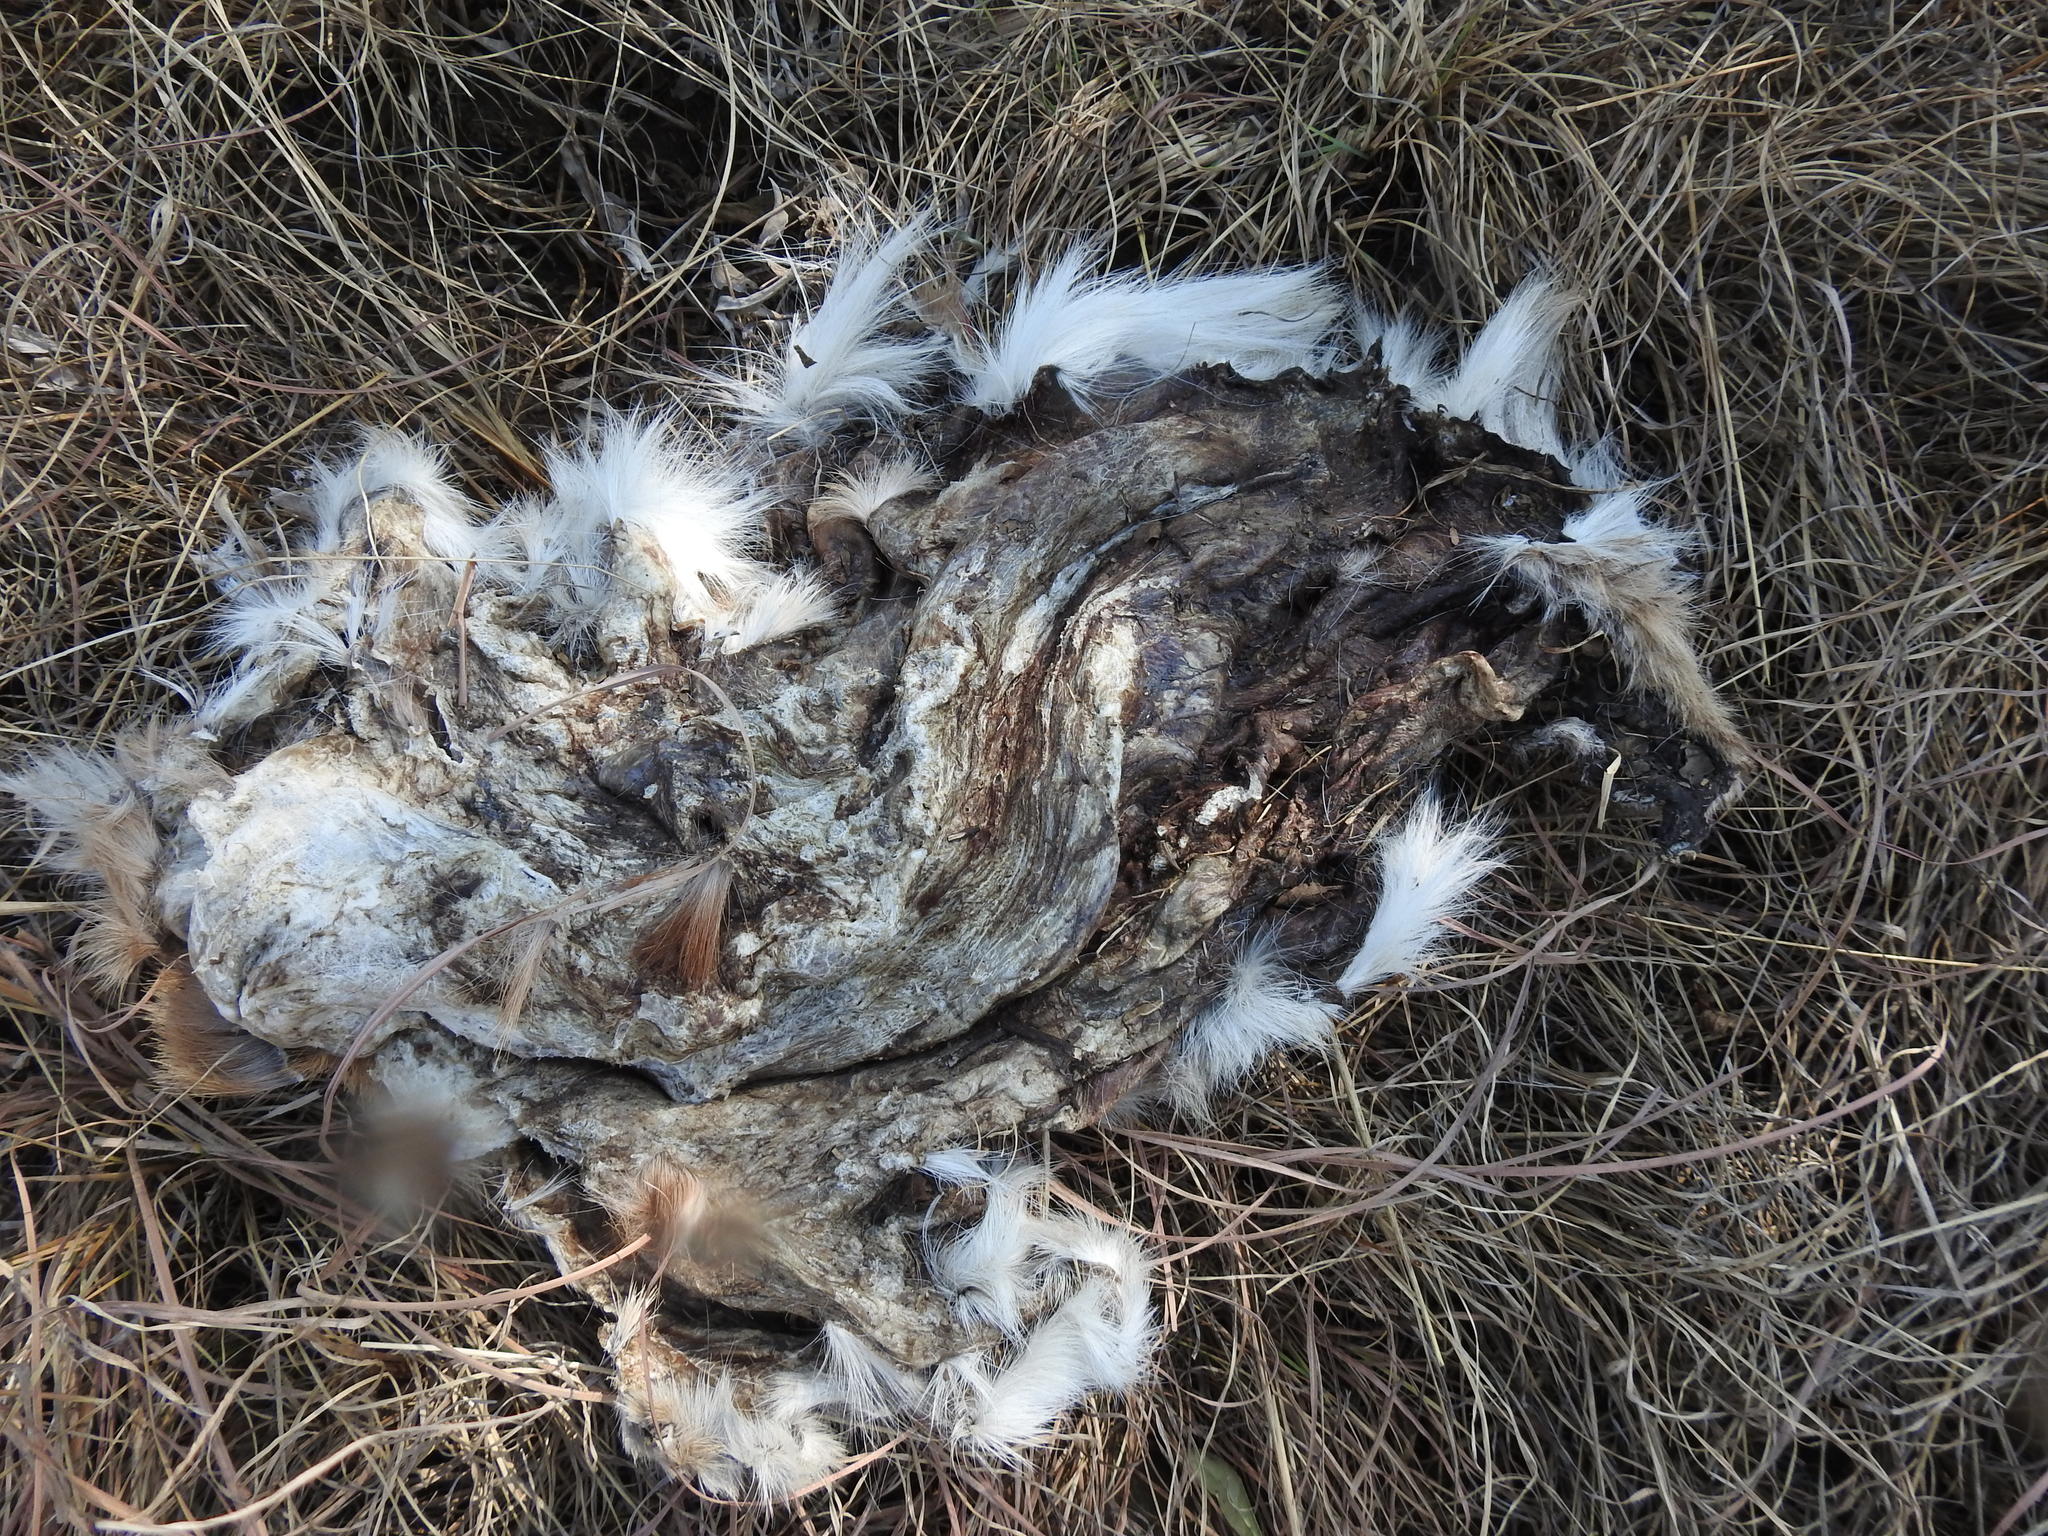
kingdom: Animalia
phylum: Chordata
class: Mammalia
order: Artiodactyla
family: Bovidae
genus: Antidorcas
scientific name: Antidorcas marsupialis
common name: Springbok
